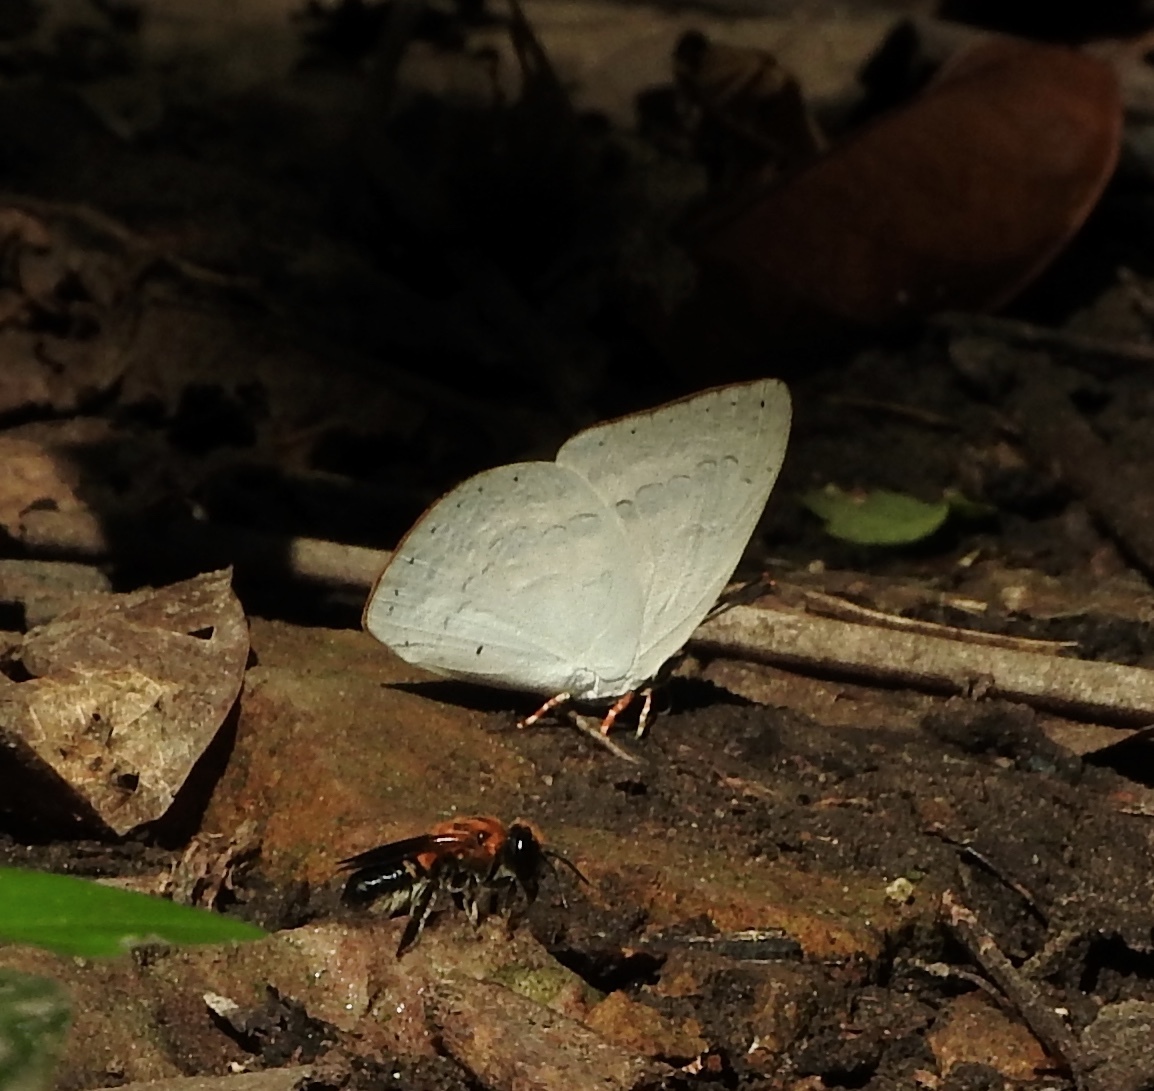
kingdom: Animalia
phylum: Arthropoda
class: Insecta
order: Lepidoptera
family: Lycaenidae
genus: Curetis
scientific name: Curetis saronis
